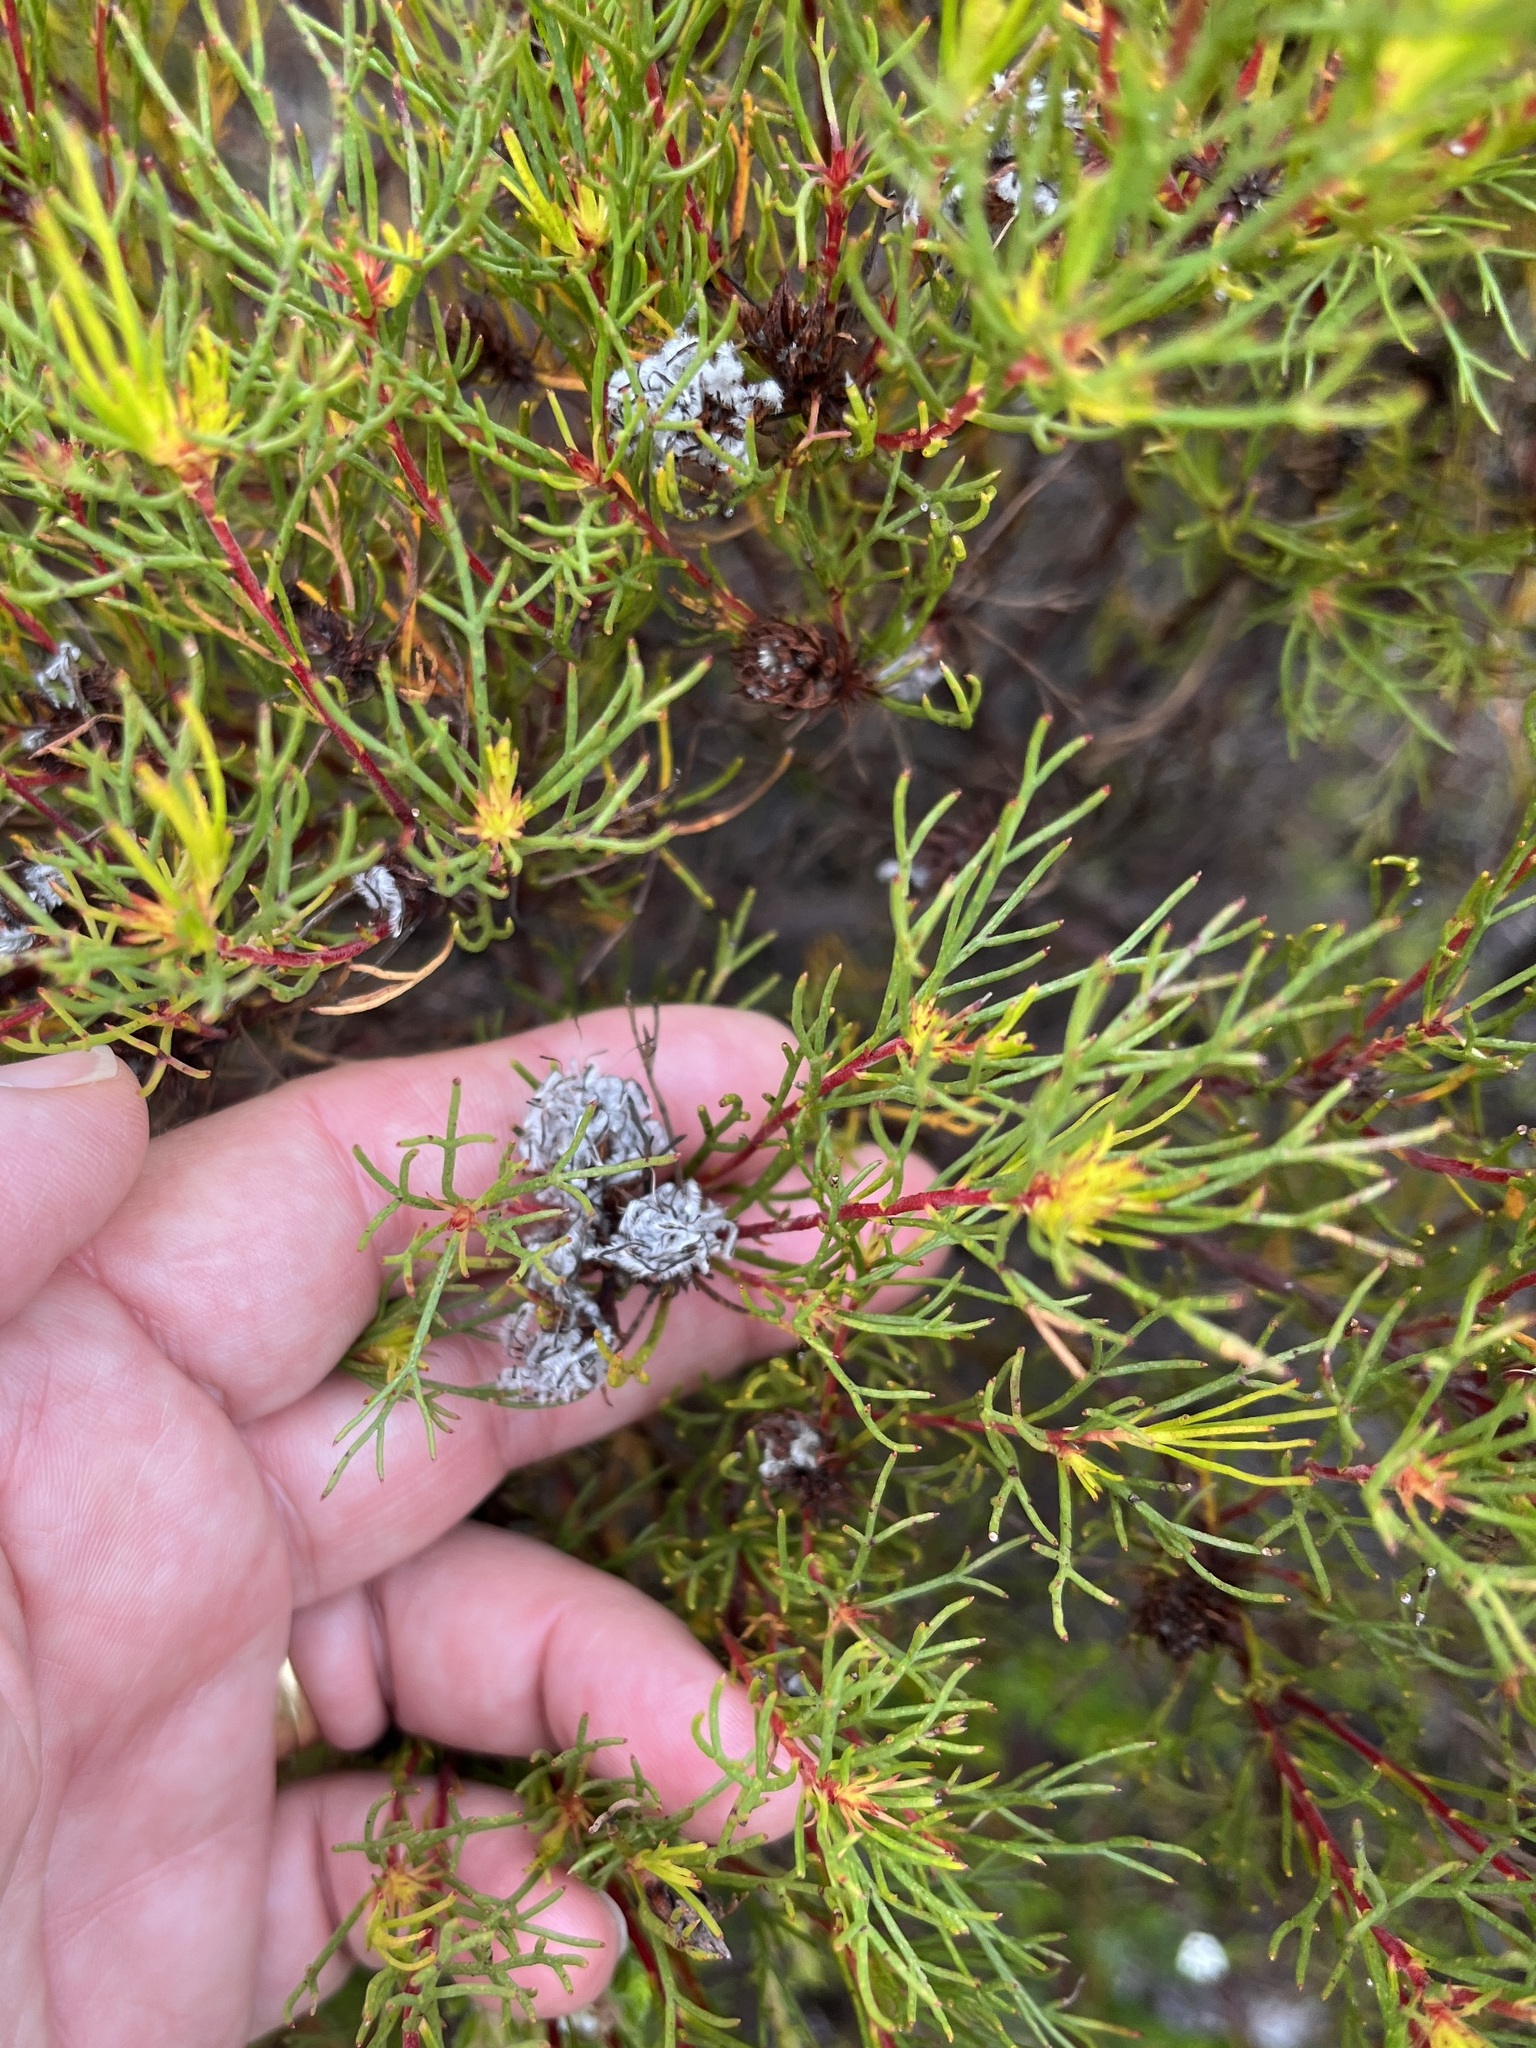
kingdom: Plantae
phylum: Tracheophyta
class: Magnoliopsida
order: Proteales
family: Proteaceae
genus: Serruria
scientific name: Serruria nervosa
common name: Fluted spiderhead
